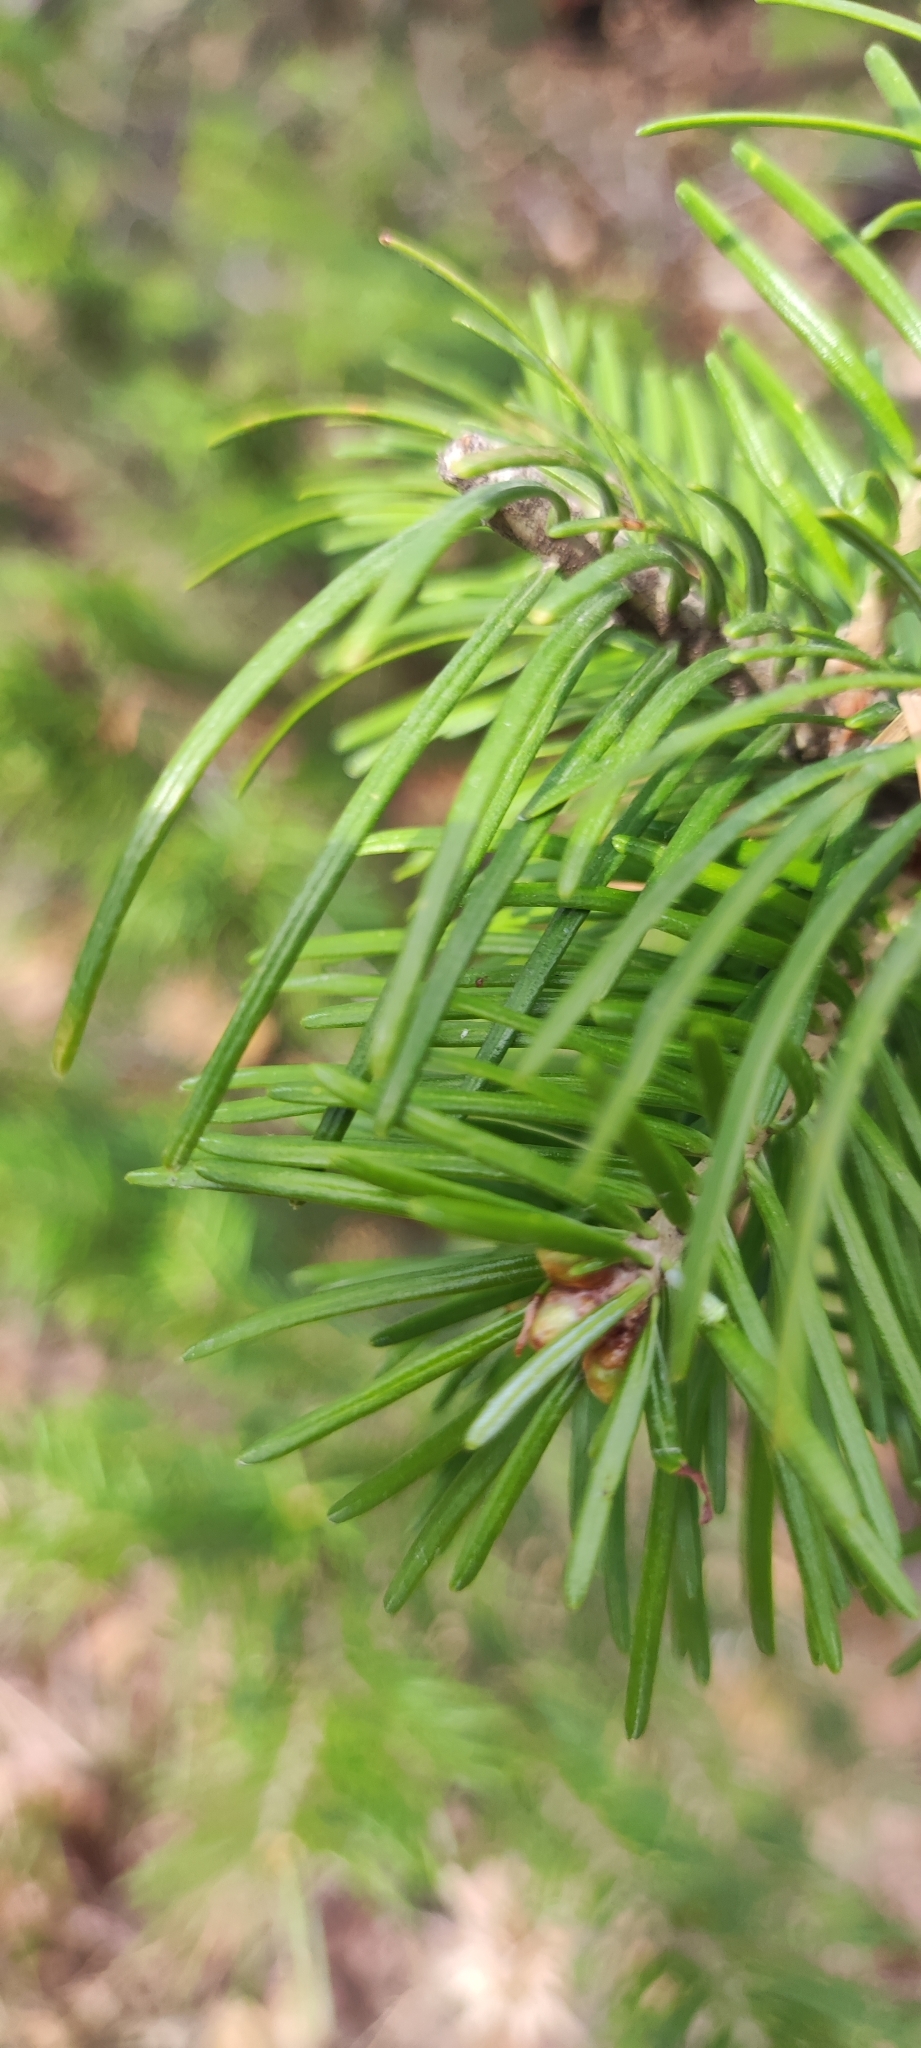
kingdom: Plantae
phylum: Tracheophyta
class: Pinopsida
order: Pinales
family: Pinaceae
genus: Abies
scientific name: Abies sibirica
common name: Siberian fir
